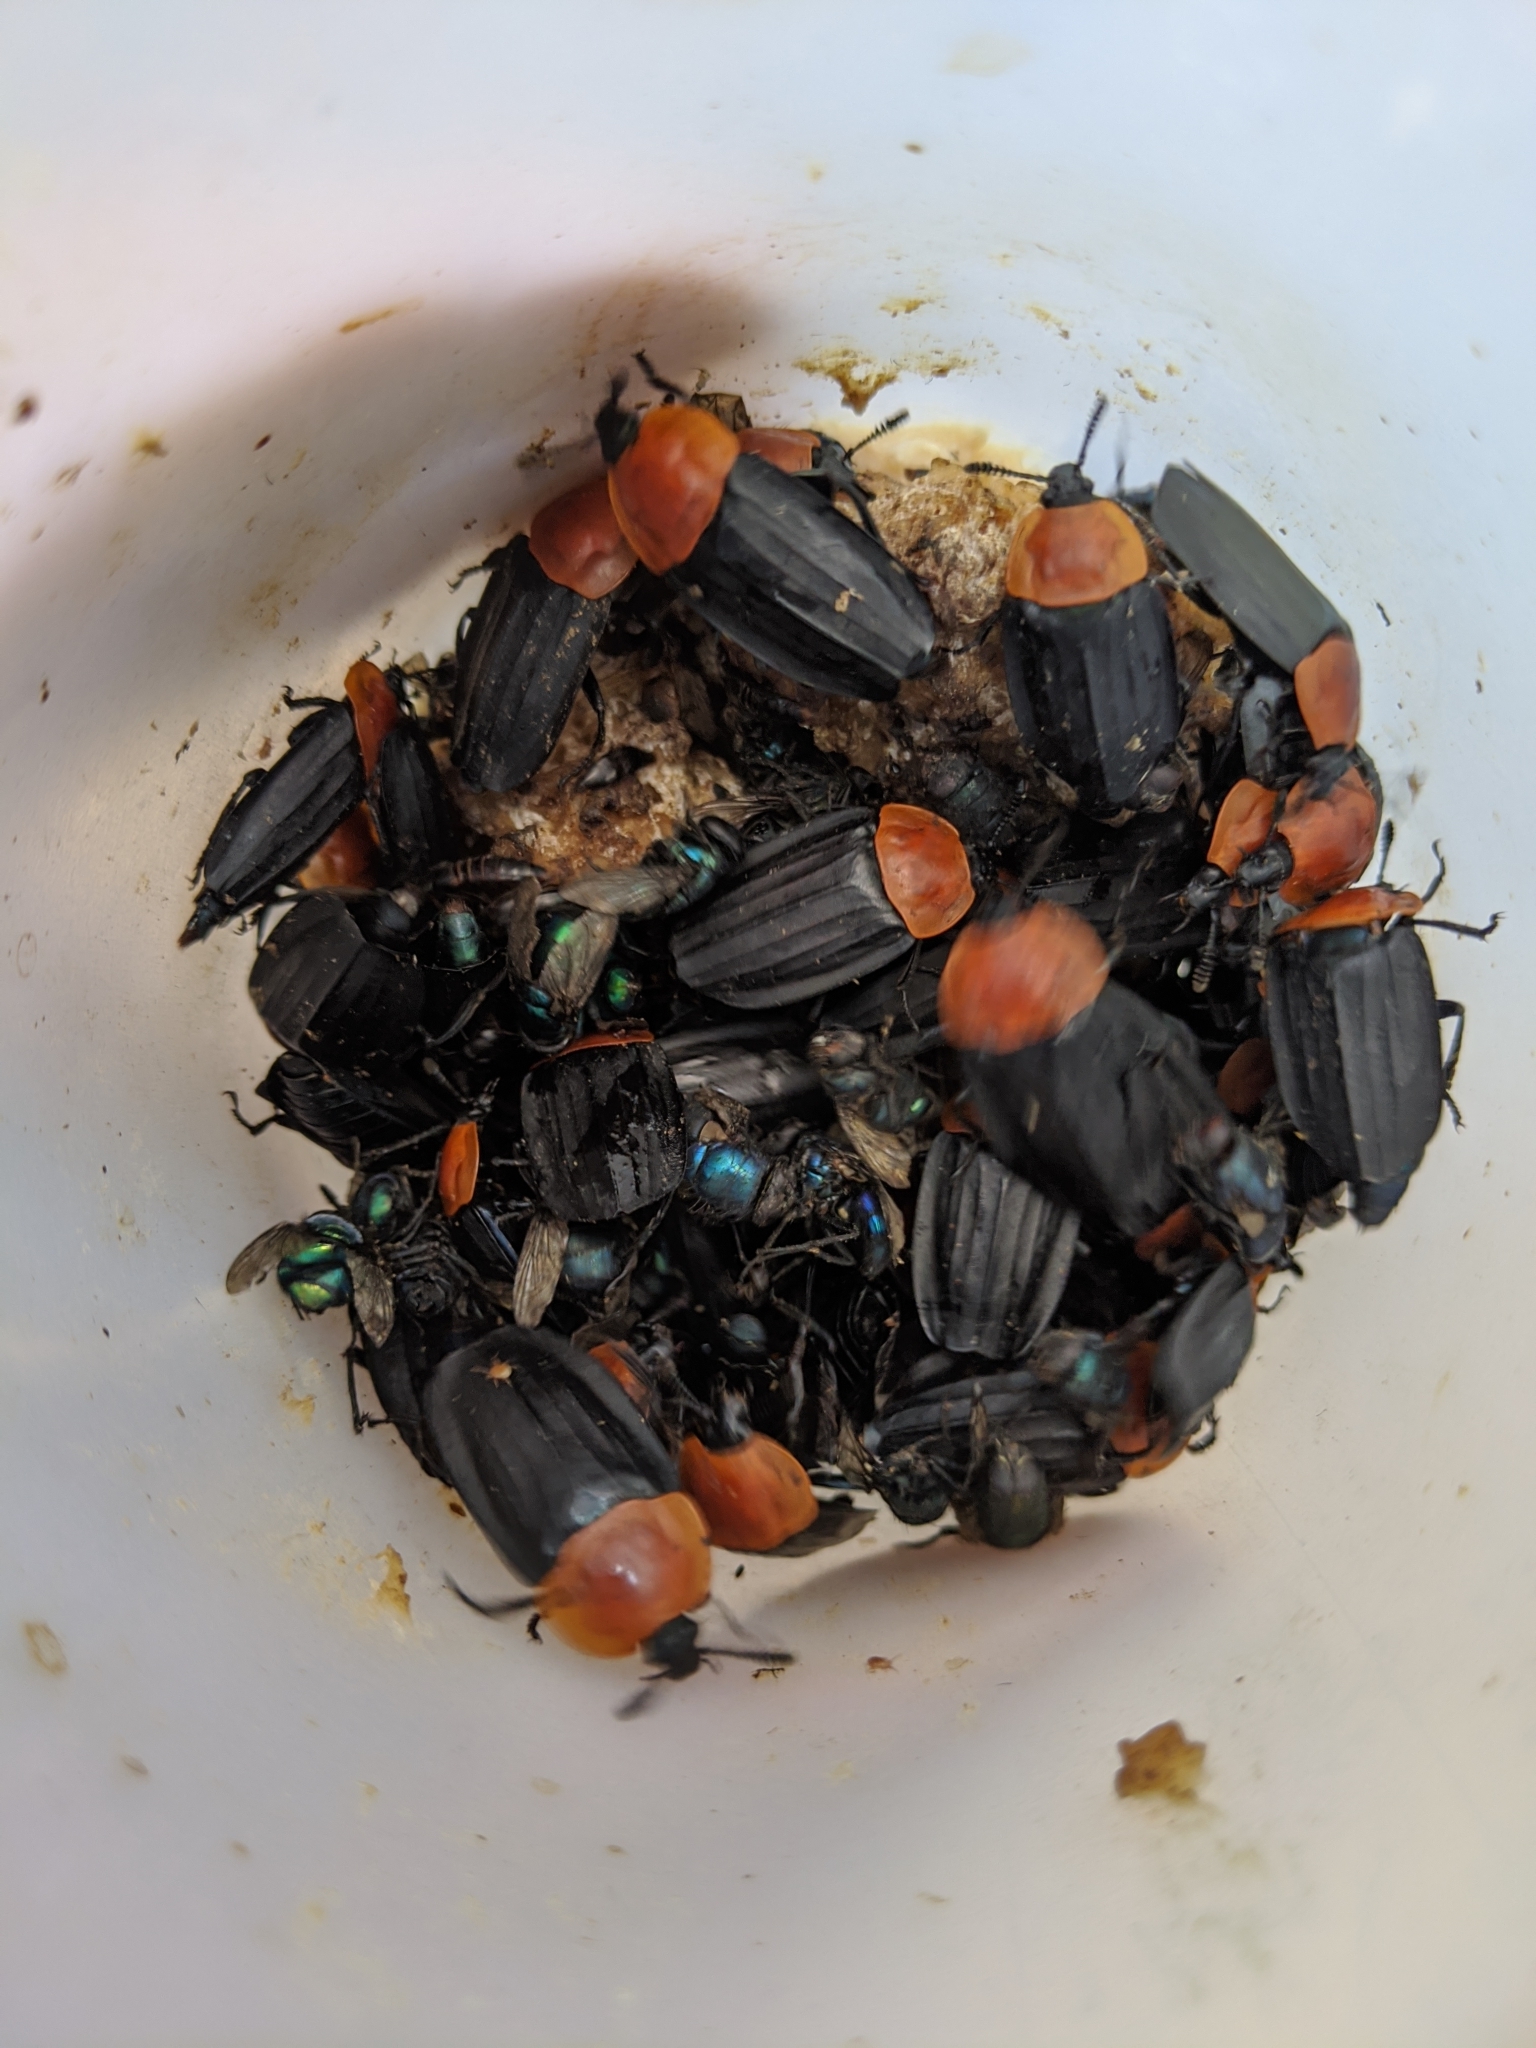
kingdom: Animalia
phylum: Arthropoda
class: Insecta
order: Coleoptera
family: Staphylinidae
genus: Necrophila
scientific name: Necrophila cyaneocephala
